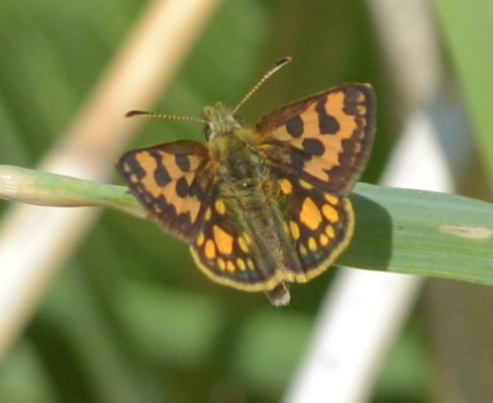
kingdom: Animalia
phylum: Arthropoda
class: Insecta
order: Lepidoptera
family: Hesperiidae
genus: Carterocephalus
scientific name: Carterocephalus silvicola
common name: Northern chequered skipper
